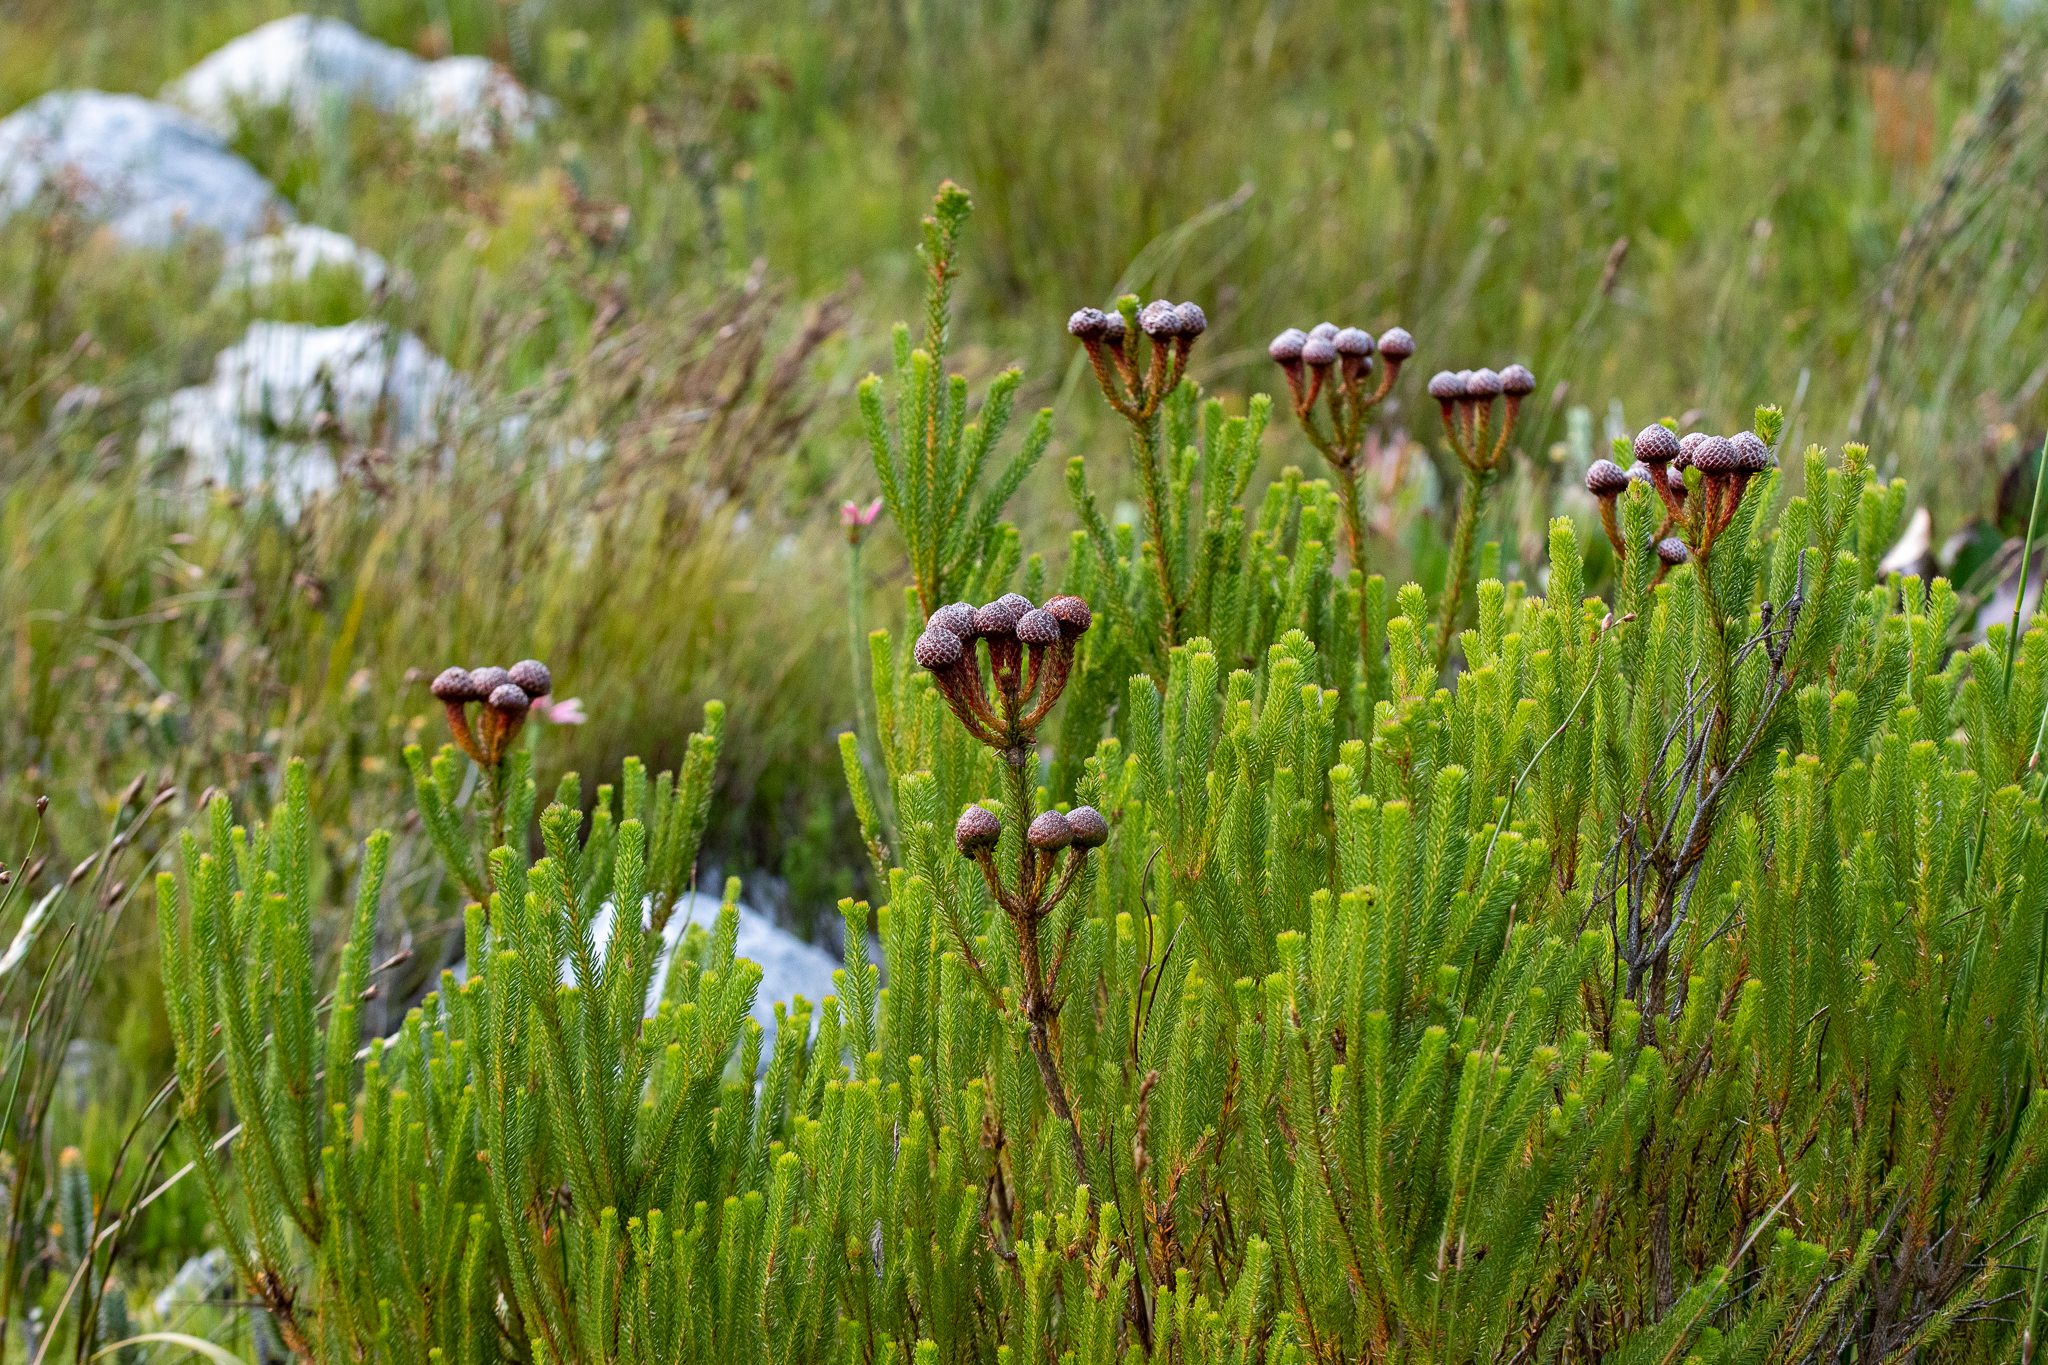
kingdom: Plantae
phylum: Tracheophyta
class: Magnoliopsida
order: Bruniales
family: Bruniaceae
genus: Berzelia
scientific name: Berzelia stokoei
